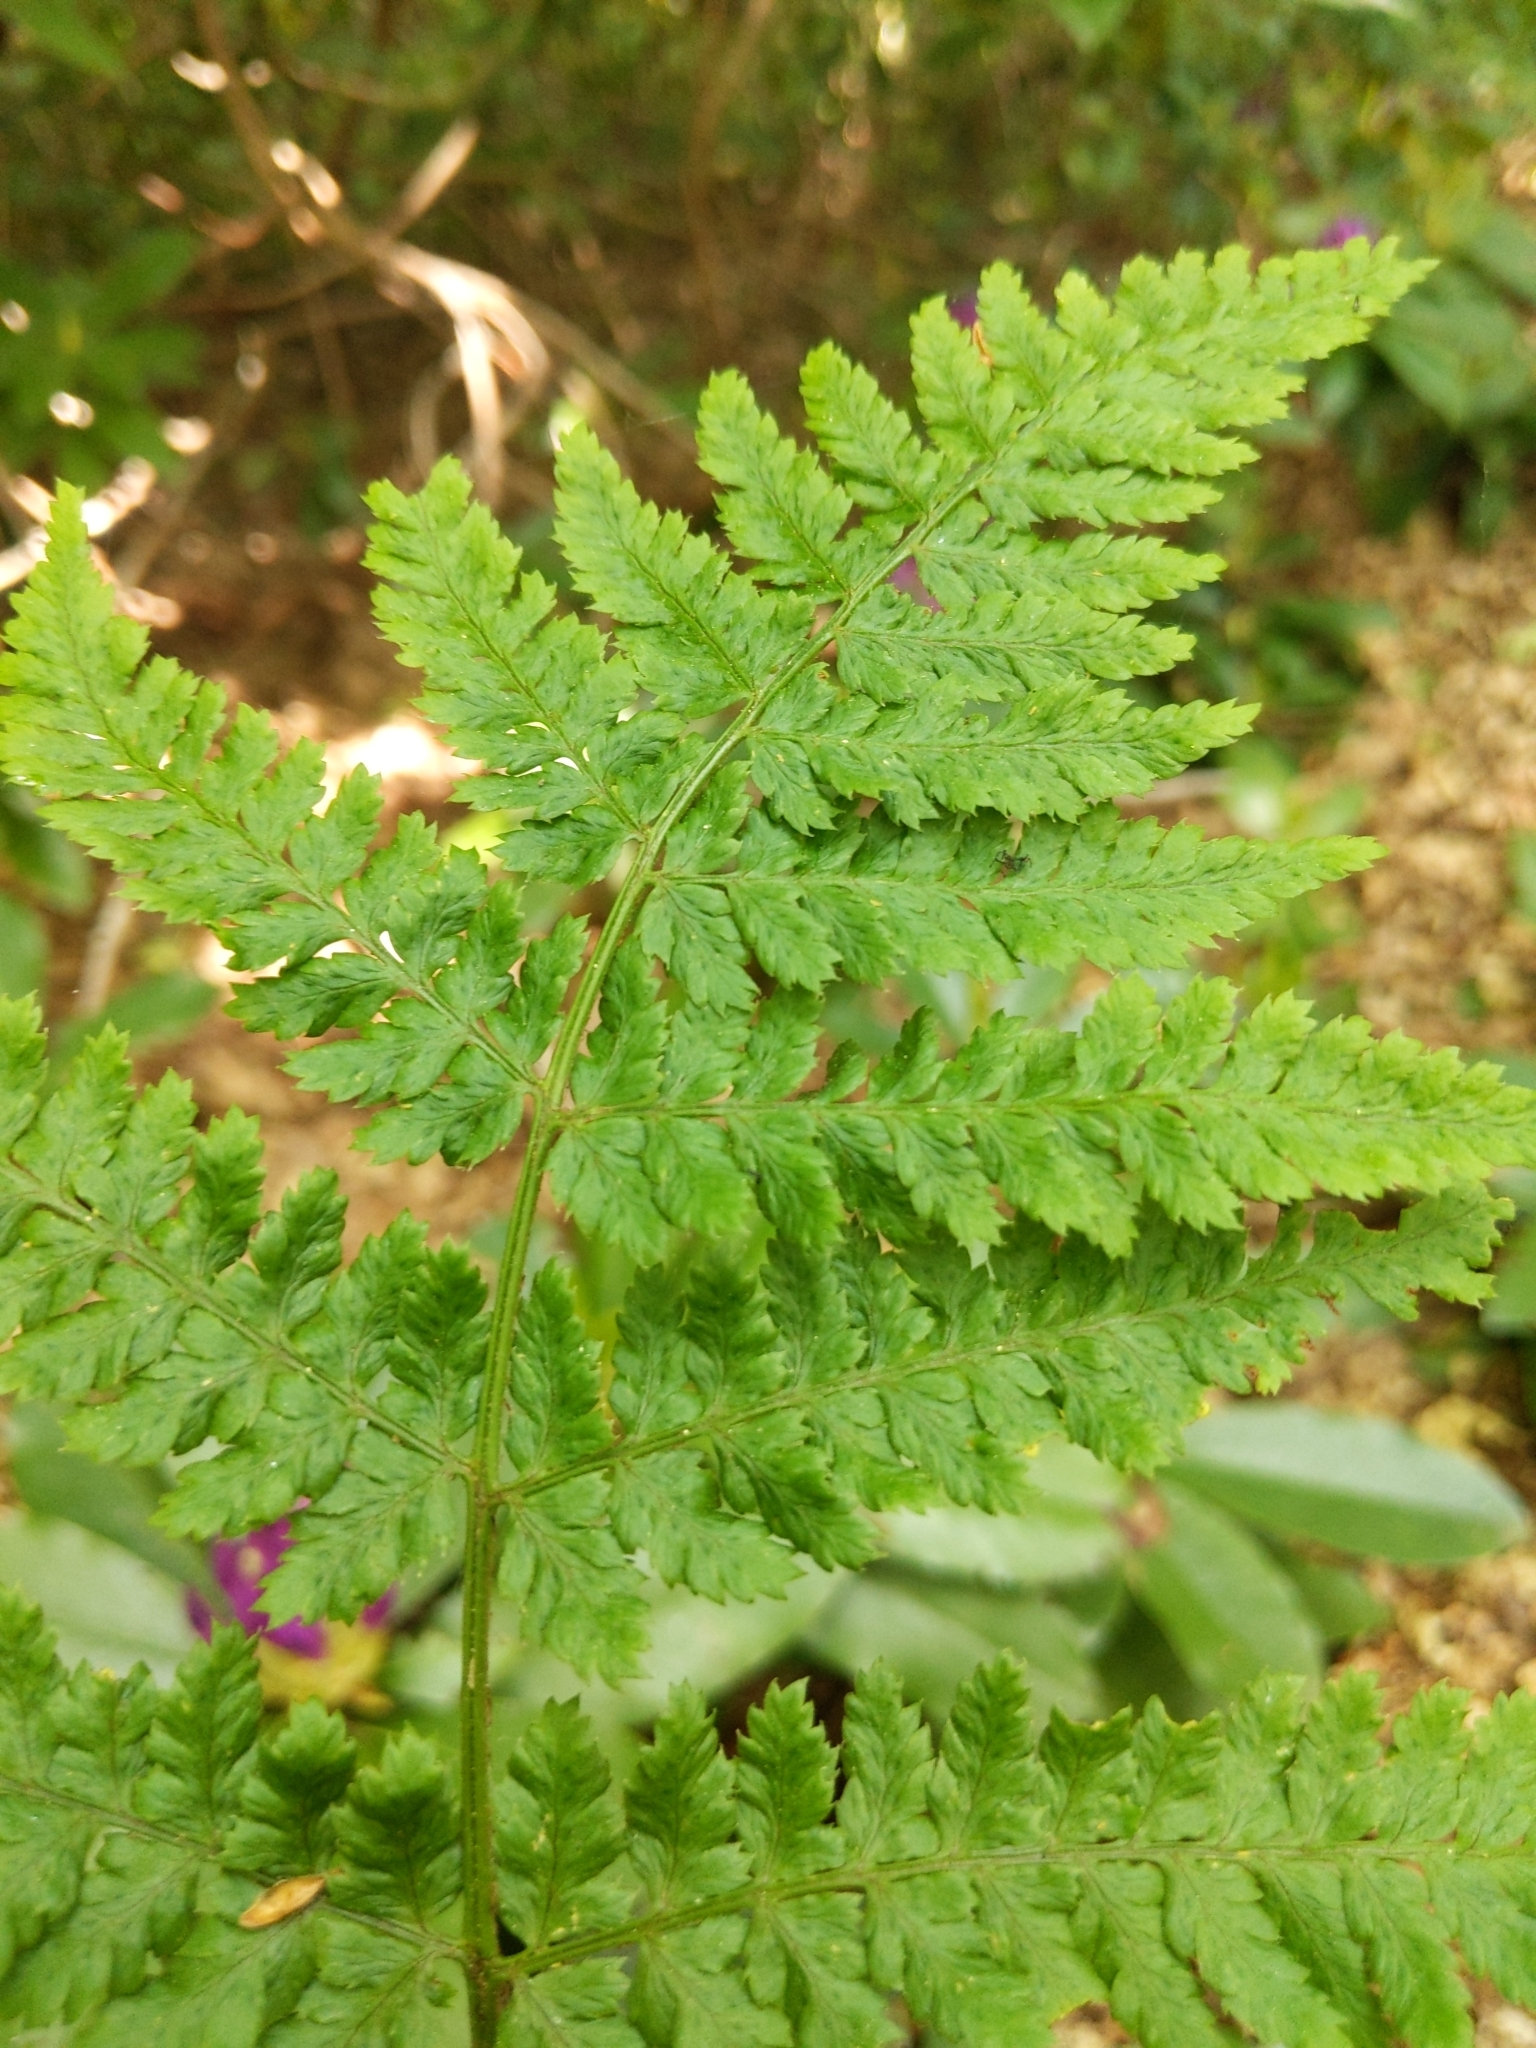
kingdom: Plantae
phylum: Tracheophyta
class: Polypodiopsida
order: Polypodiales
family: Dryopteridaceae
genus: Dryopteris
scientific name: Dryopteris dilatata
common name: Broad buckler-fern
